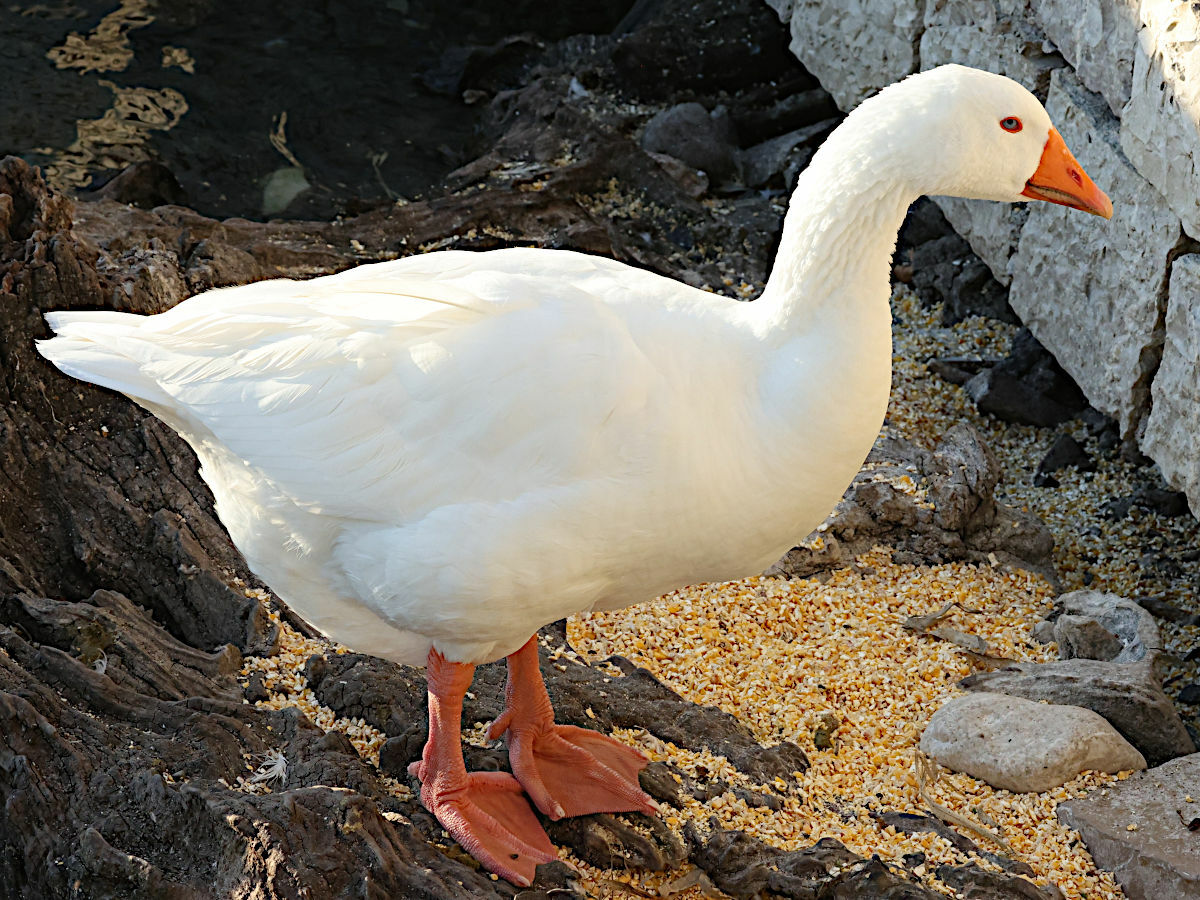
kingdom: Animalia
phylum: Chordata
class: Aves
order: Anseriformes
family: Anatidae
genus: Anser
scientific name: Anser anser
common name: Greylag goose
